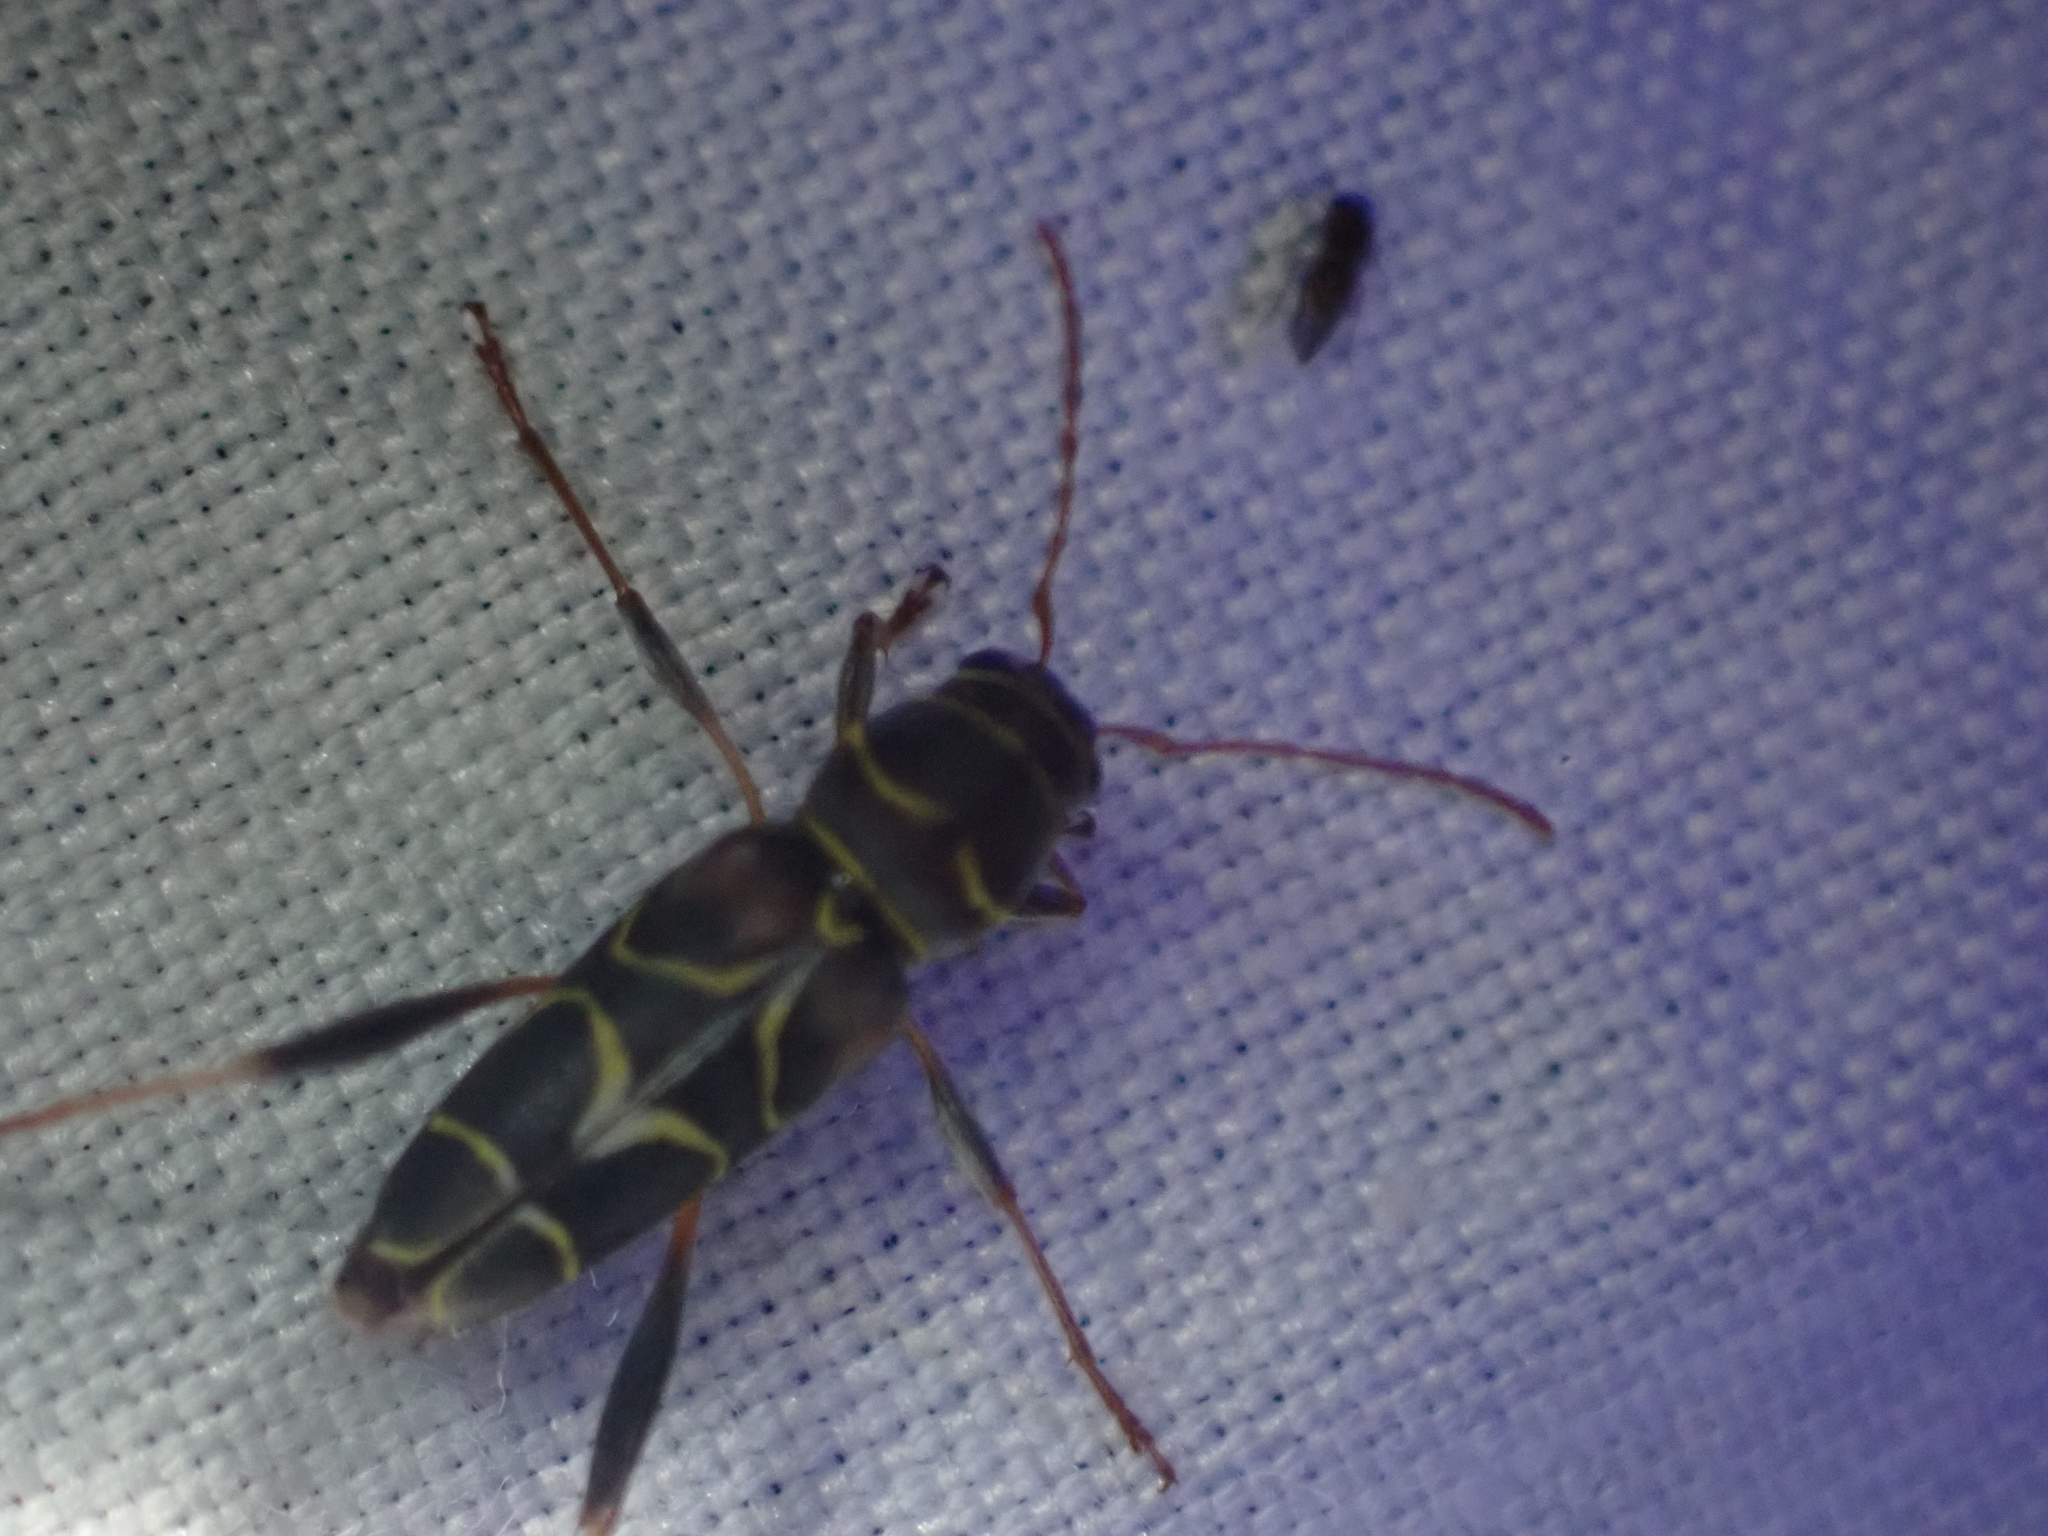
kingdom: Animalia
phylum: Arthropoda
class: Insecta
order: Coleoptera
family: Cerambycidae
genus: Neoclytus
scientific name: Neoclytus scutellaris
